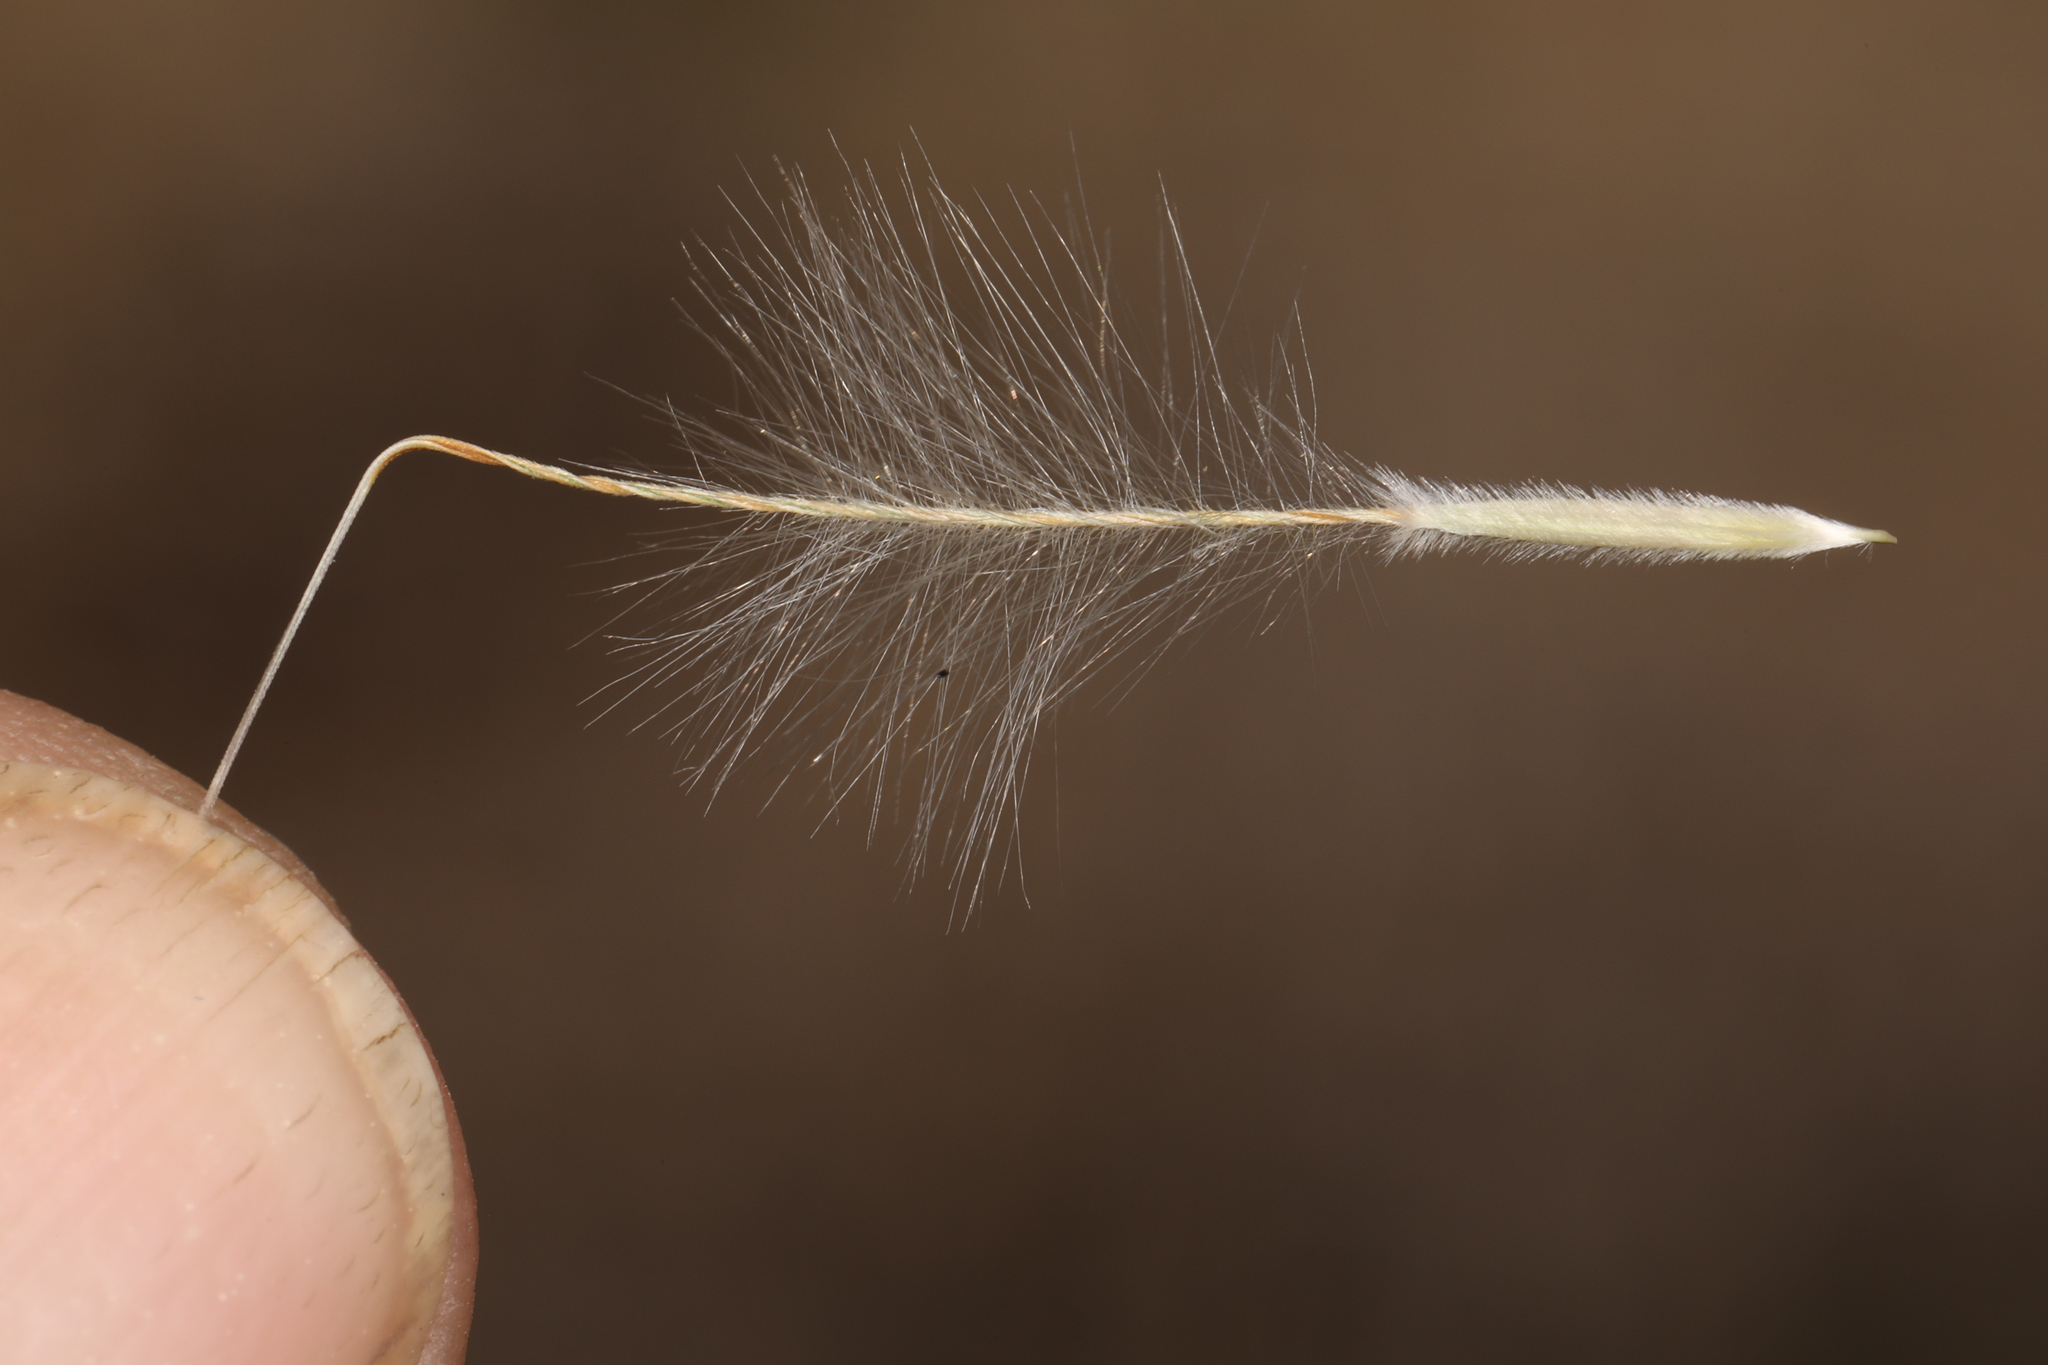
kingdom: Plantae
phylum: Tracheophyta
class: Liliopsida
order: Poales
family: Poaceae
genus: Pappostipa
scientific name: Pappostipa speciosa
